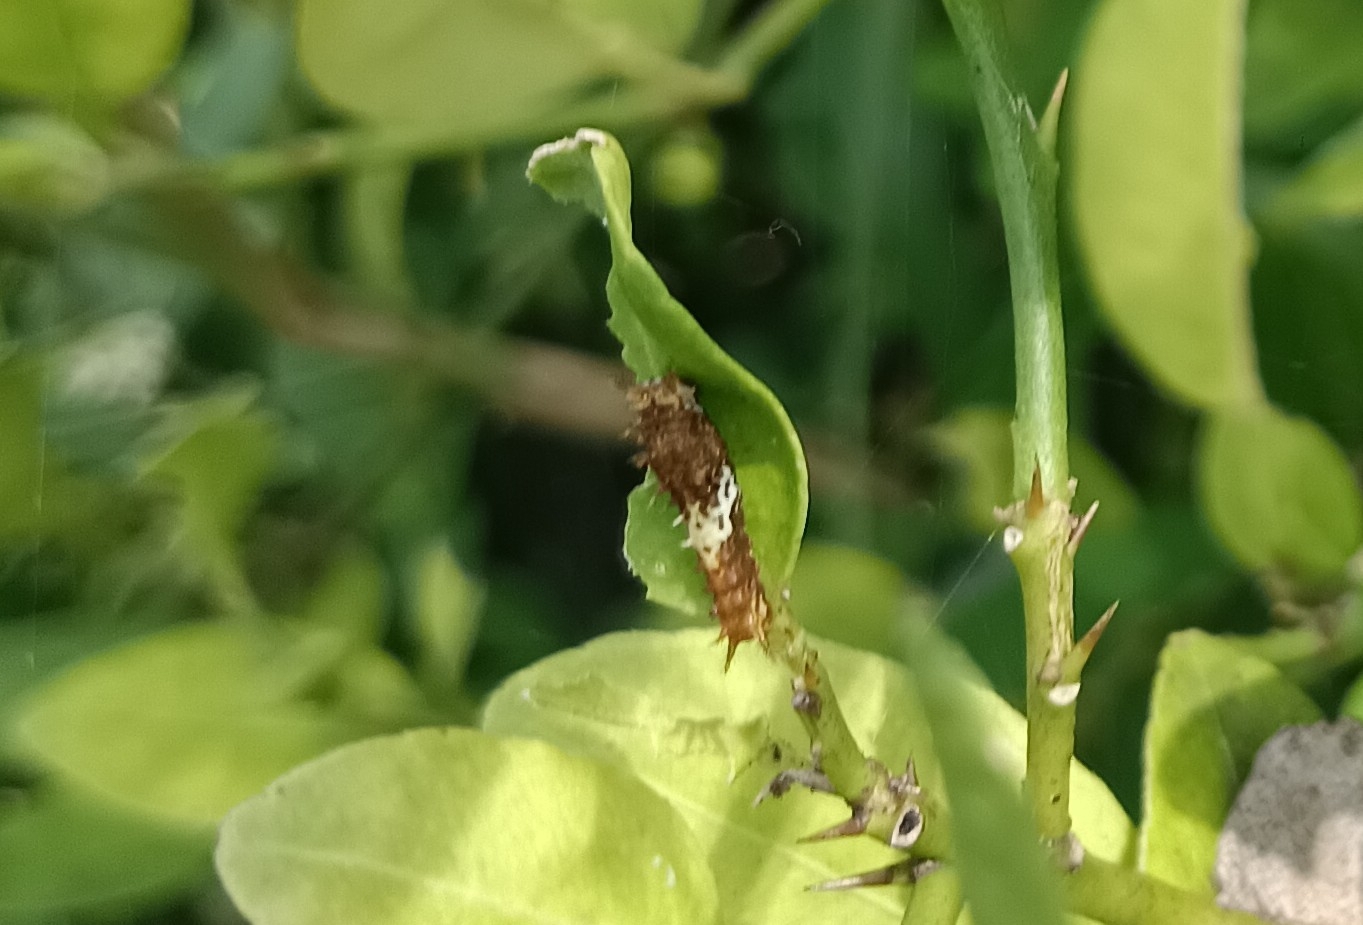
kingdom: Animalia
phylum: Arthropoda
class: Insecta
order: Lepidoptera
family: Papilionidae
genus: Papilio
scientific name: Papilio demoleus
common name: Lime butterfly
